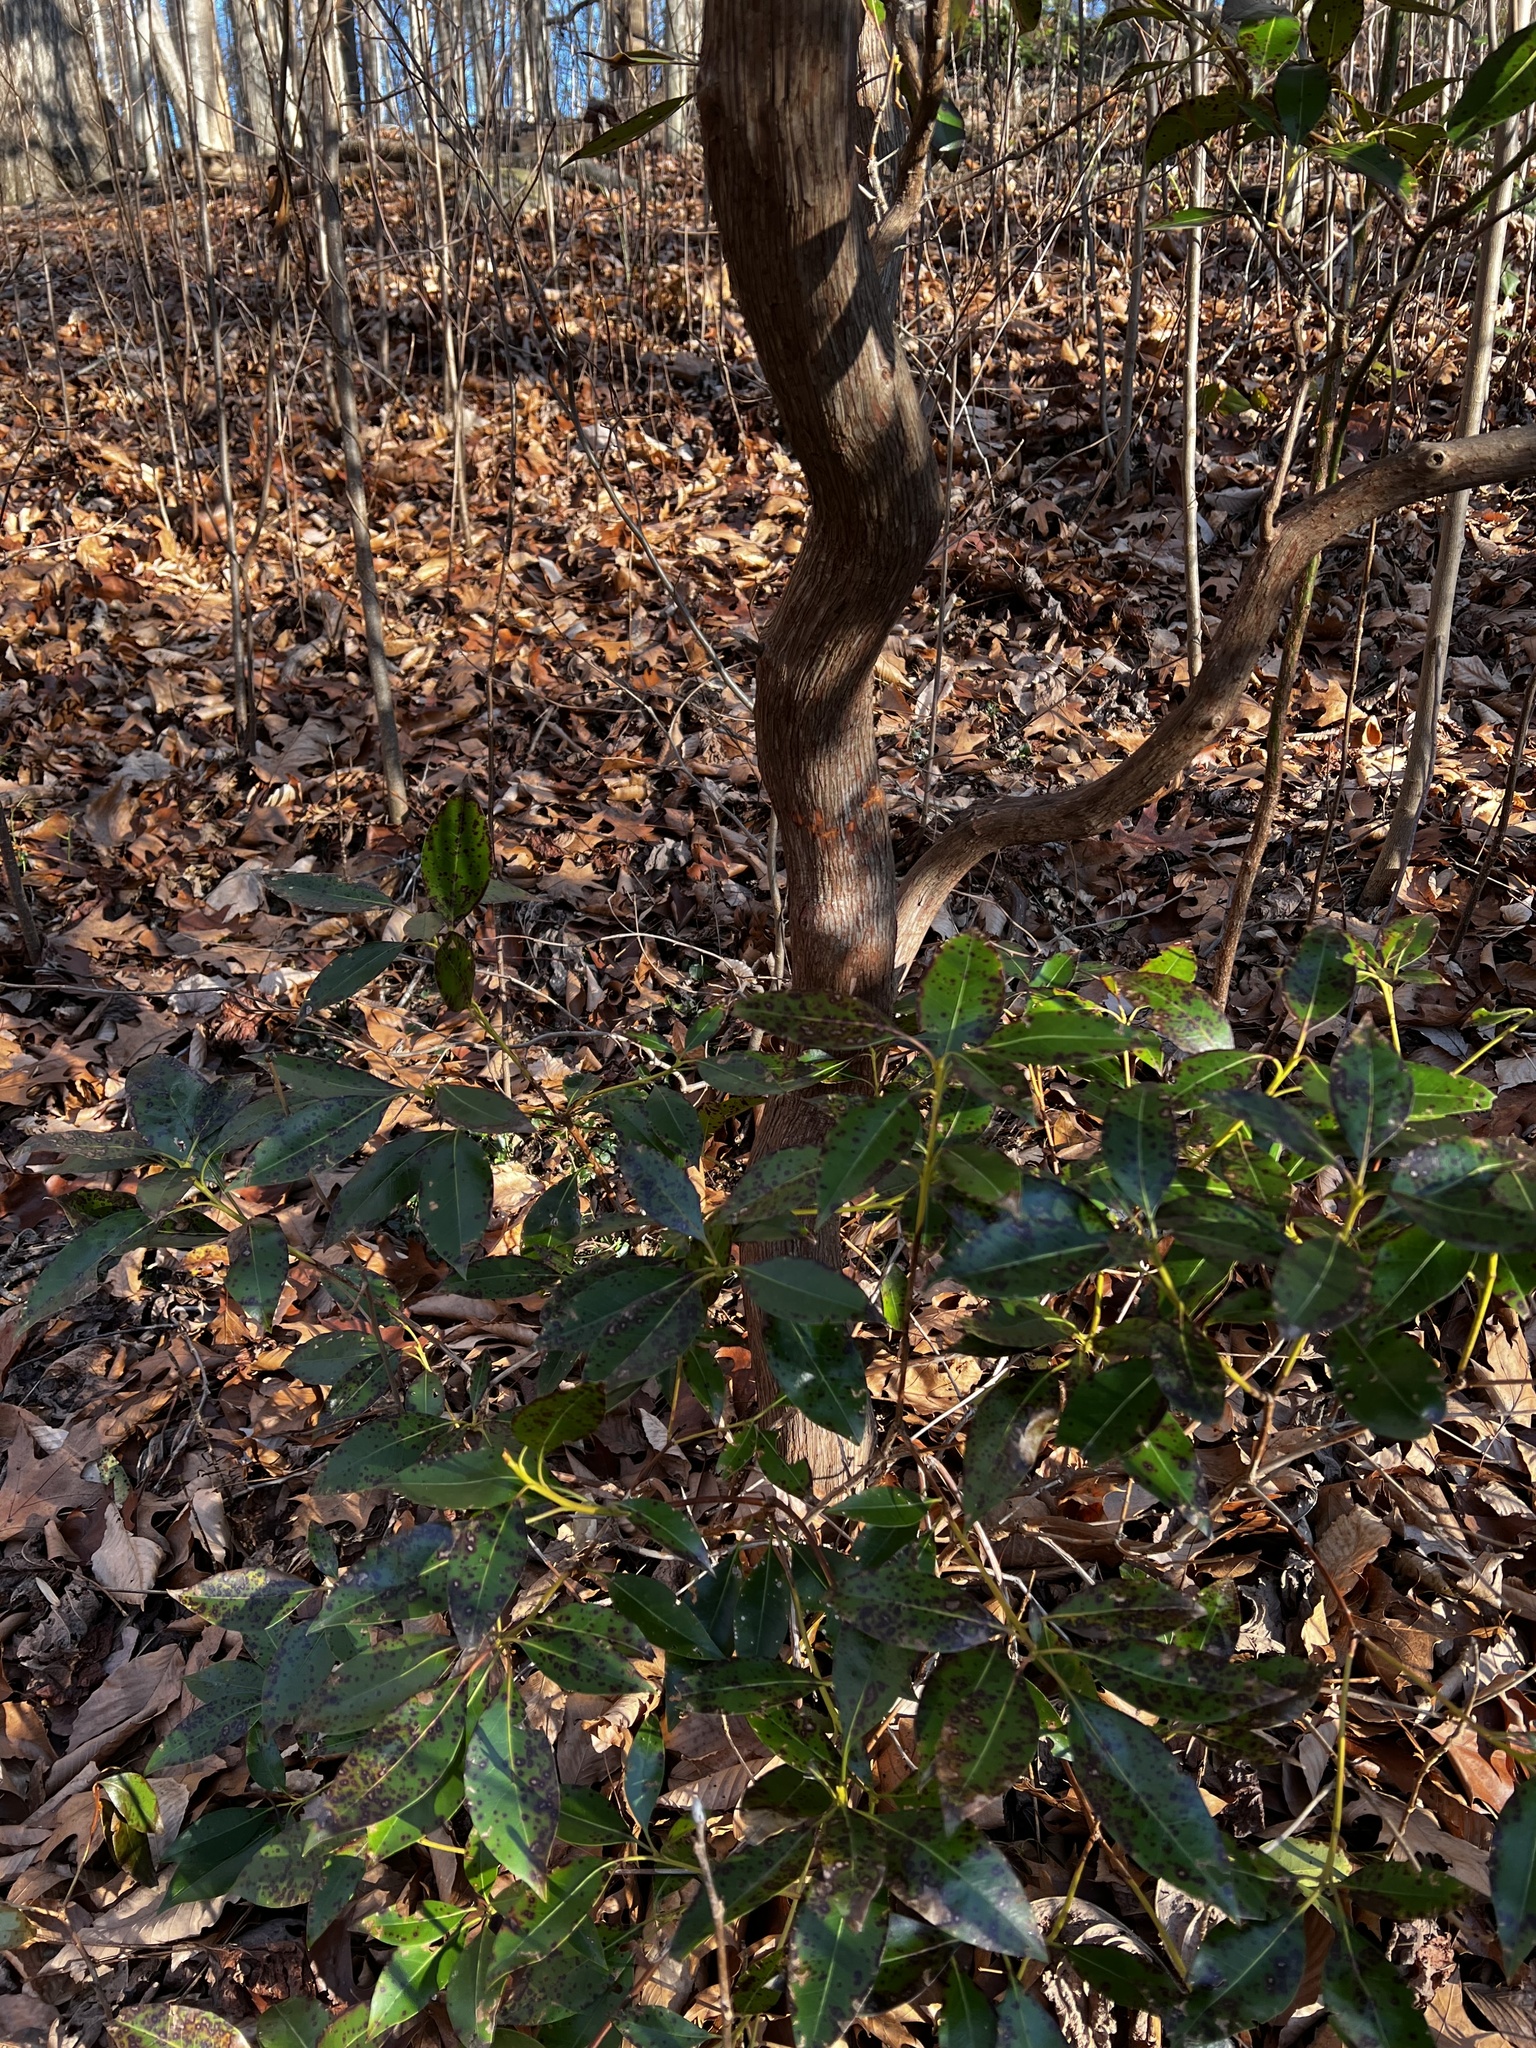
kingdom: Plantae
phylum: Tracheophyta
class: Magnoliopsida
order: Ericales
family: Ericaceae
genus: Kalmia
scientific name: Kalmia latifolia
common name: Mountain-laurel
